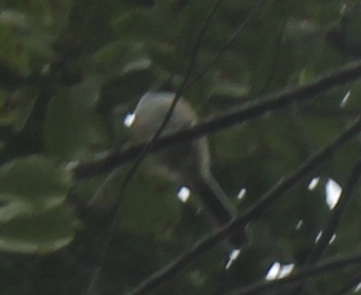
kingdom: Animalia
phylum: Chordata
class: Aves
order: Passeriformes
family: Paridae
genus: Poecile
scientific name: Poecile atricapillus
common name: Black-capped chickadee
